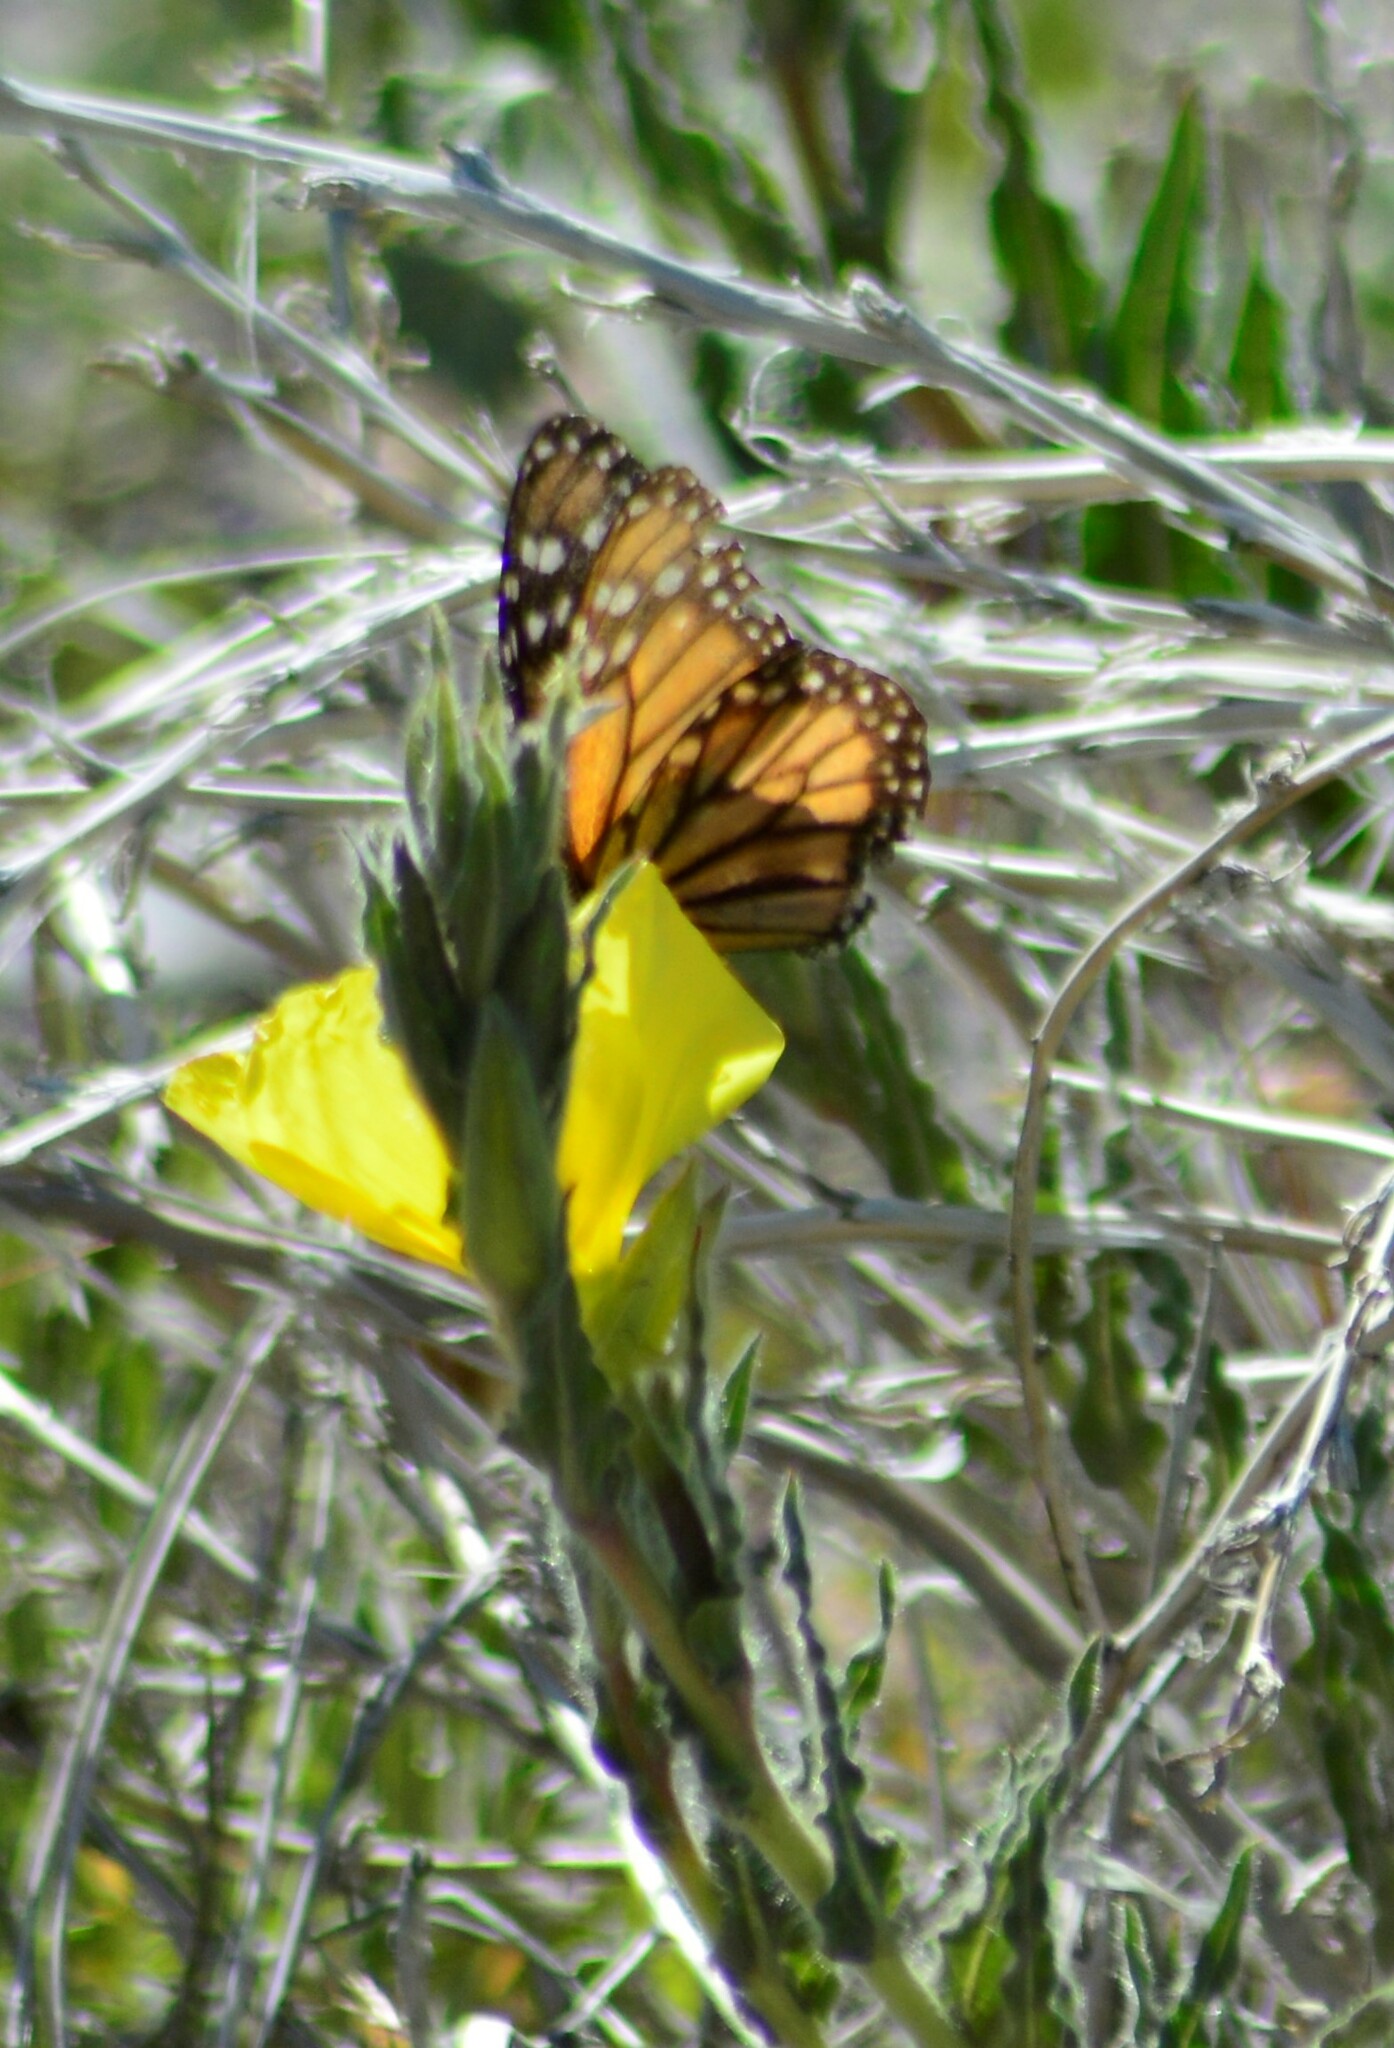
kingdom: Animalia
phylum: Arthropoda
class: Insecta
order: Lepidoptera
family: Nymphalidae
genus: Danaus
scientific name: Danaus erippus
